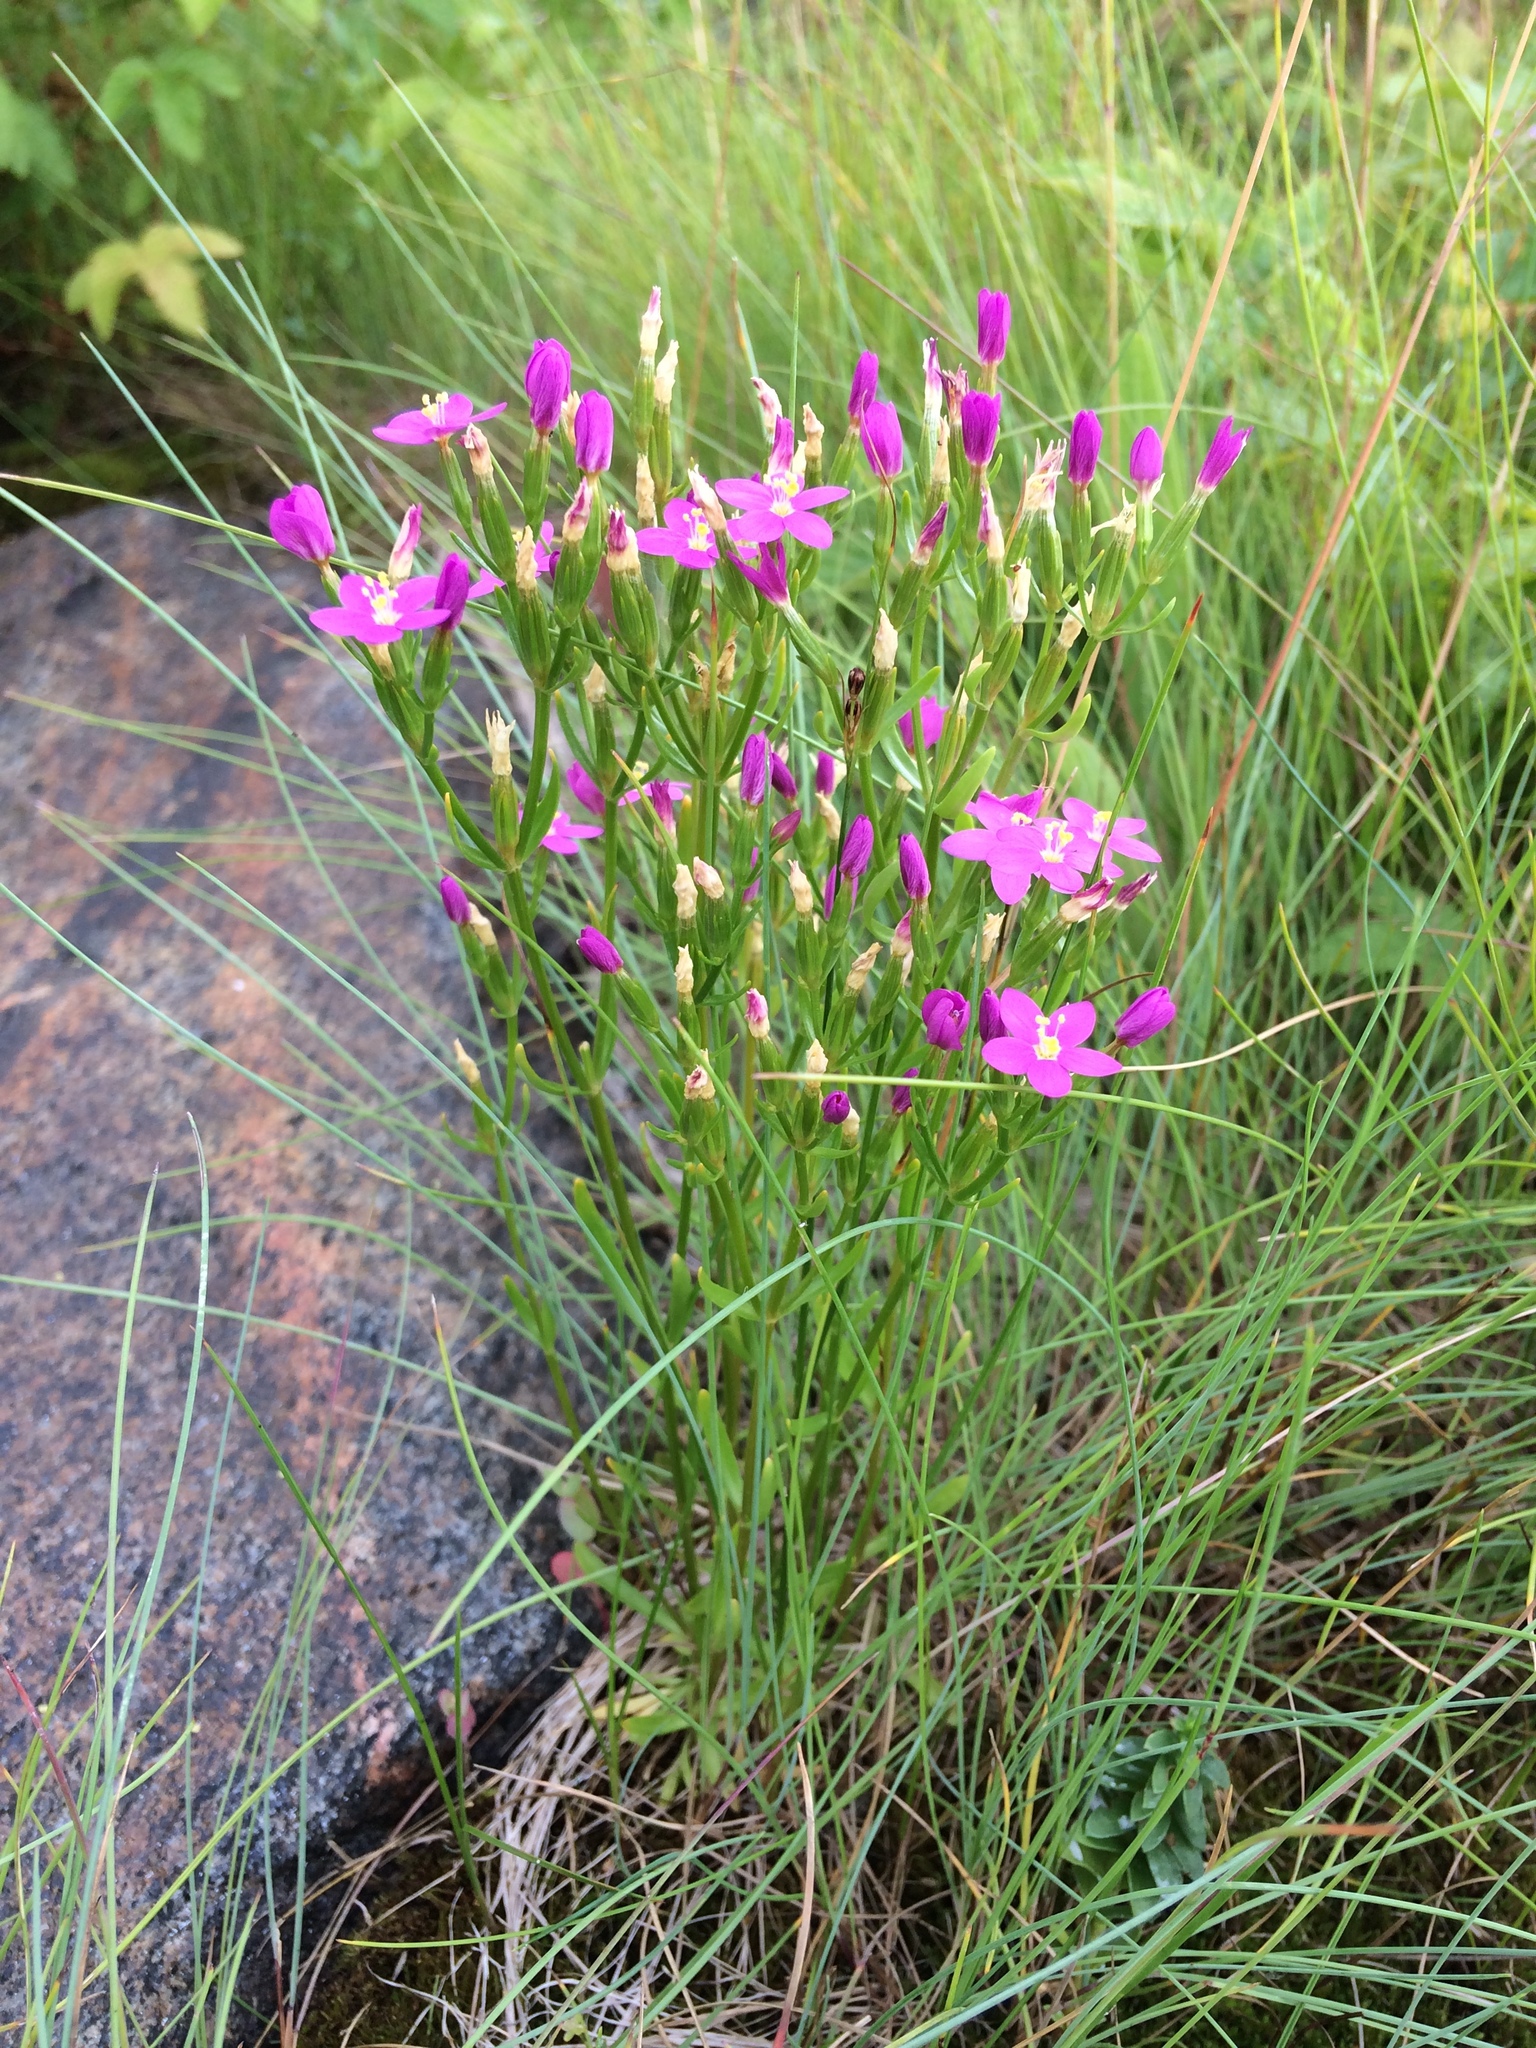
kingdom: Plantae
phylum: Tracheophyta
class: Magnoliopsida
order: Gentianales
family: Gentianaceae
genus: Centaurium
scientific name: Centaurium littorale
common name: Seaside centaury
